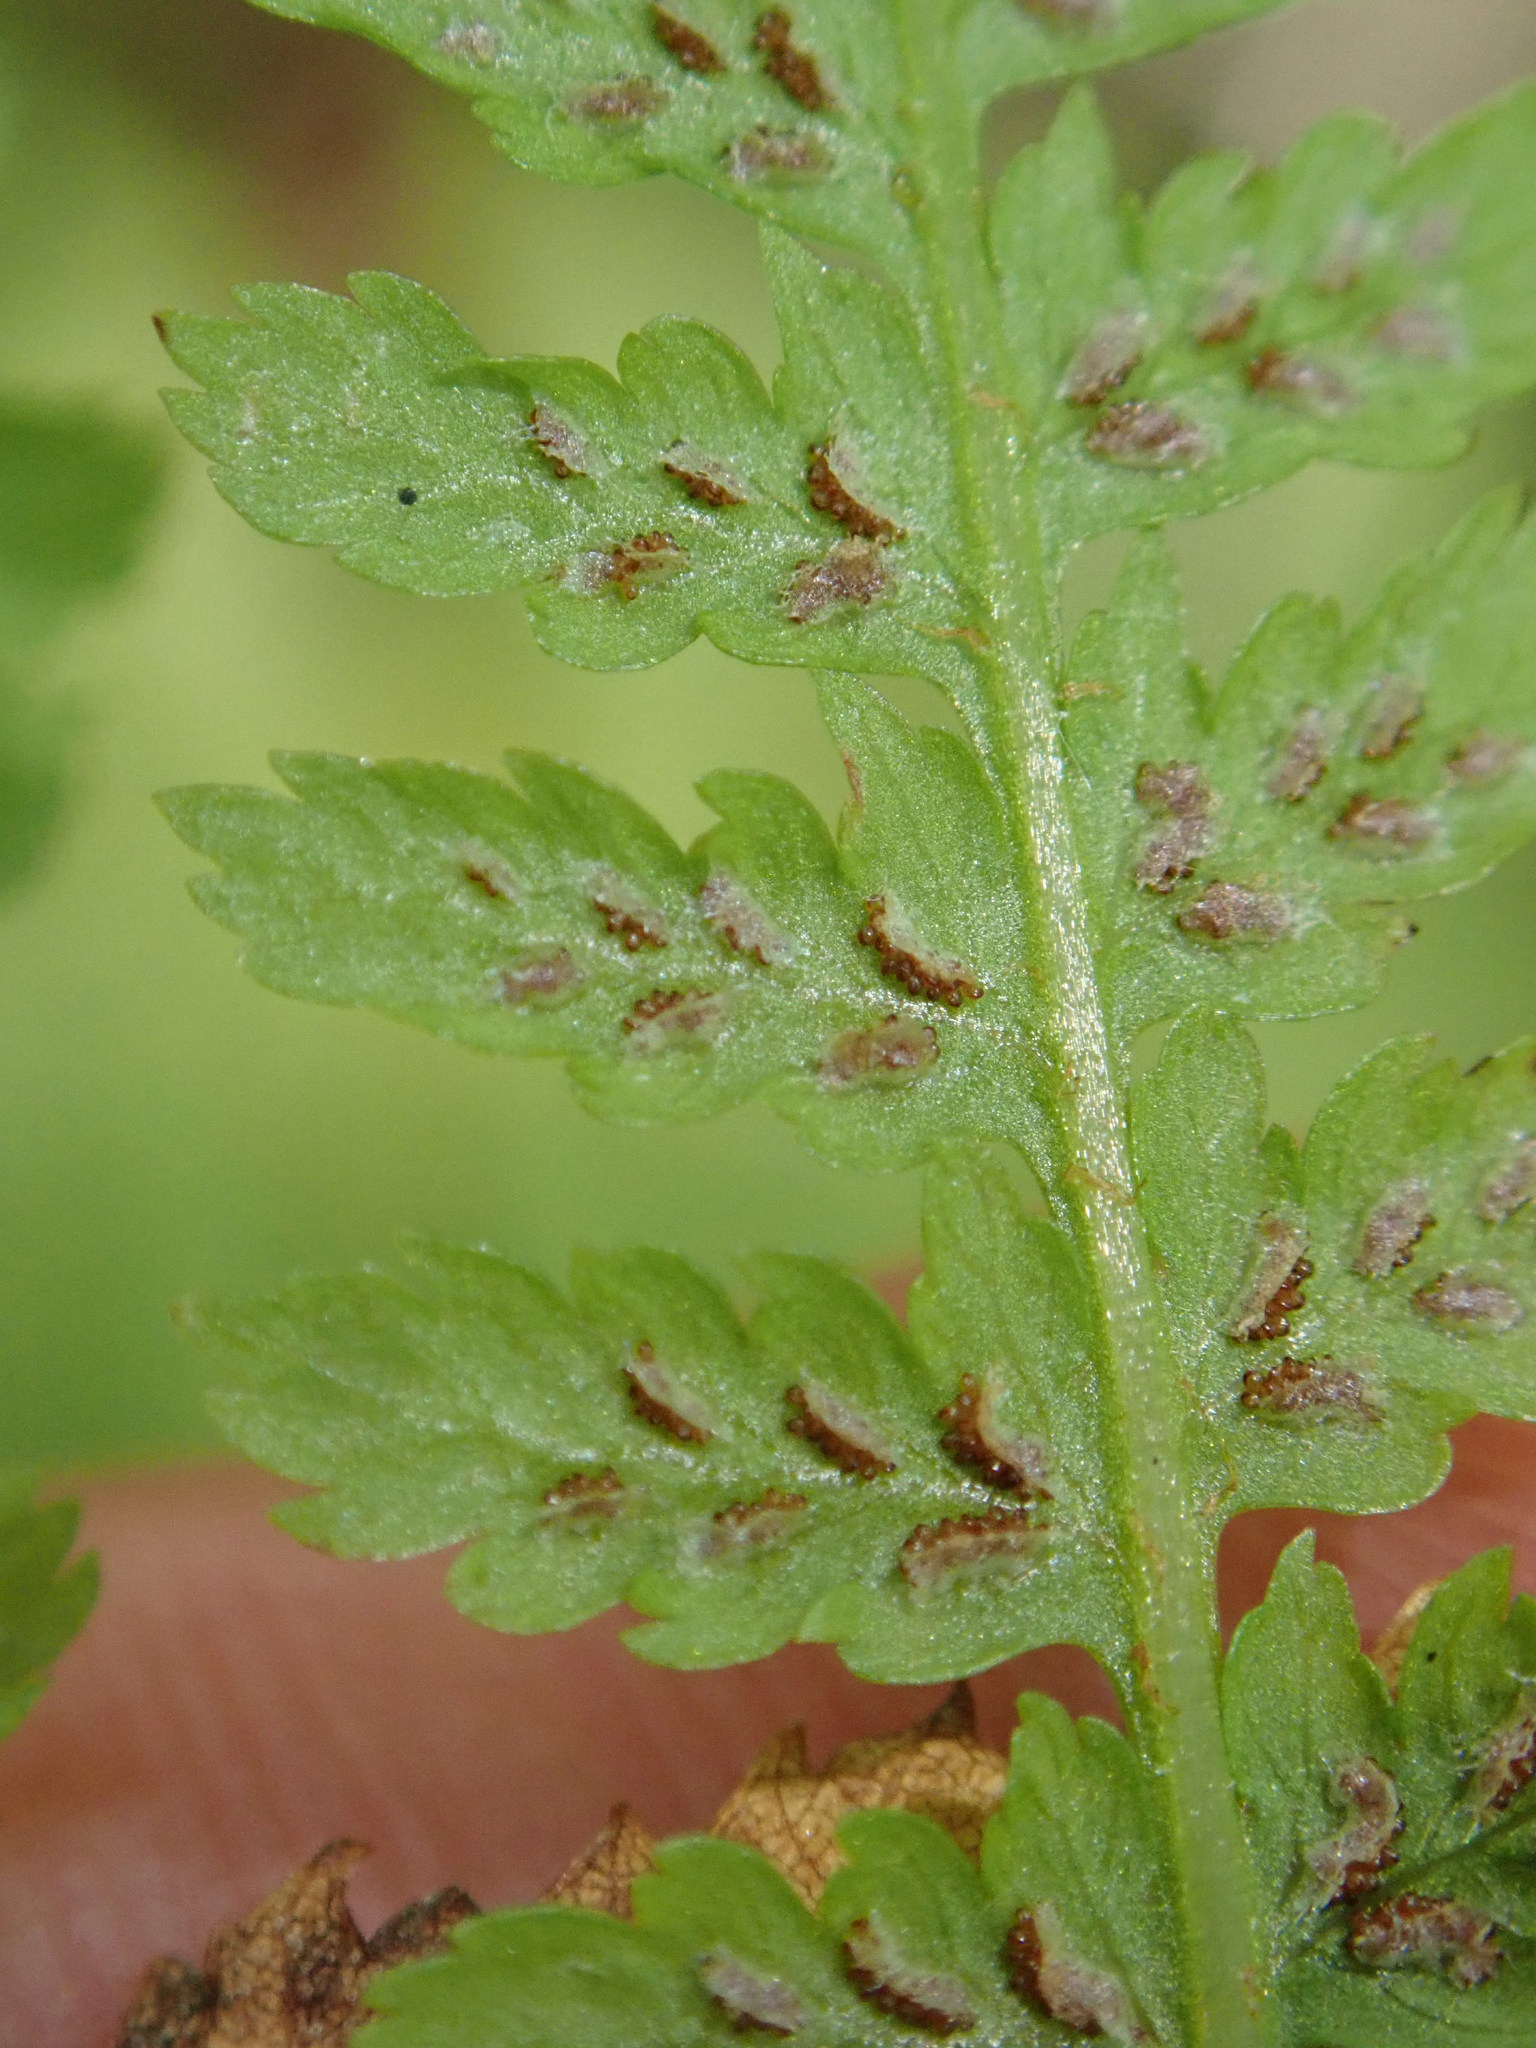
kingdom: Plantae
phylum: Tracheophyta
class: Polypodiopsida
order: Polypodiales
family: Athyriaceae
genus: Athyrium
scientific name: Athyrium filix-femina
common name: Lady fern
